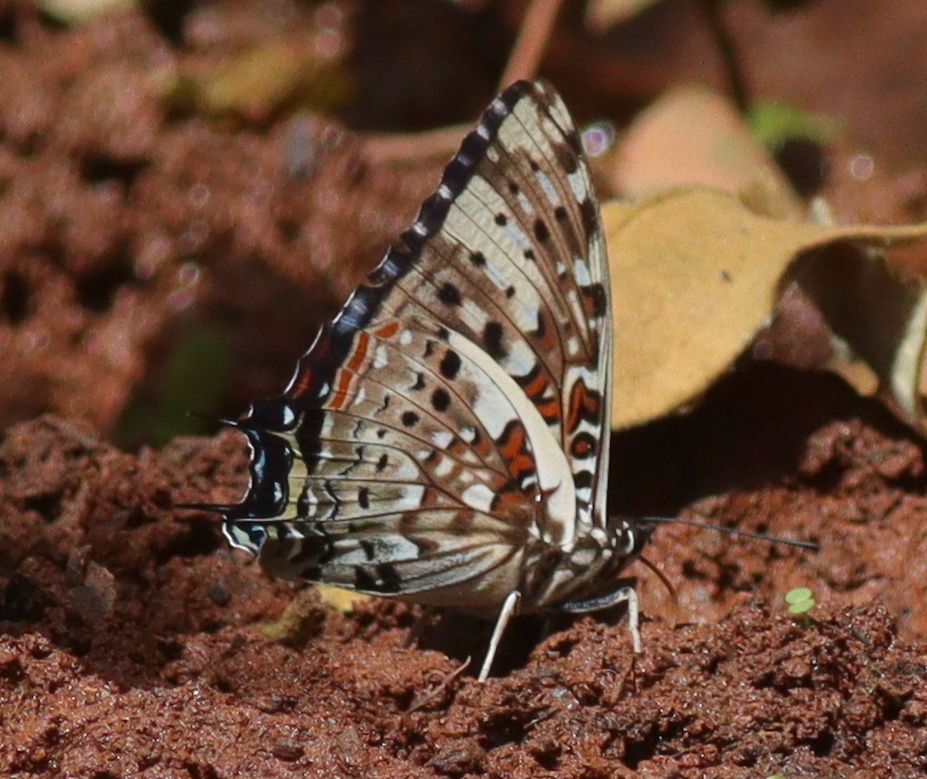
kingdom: Animalia
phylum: Arthropoda
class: Insecta
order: Lepidoptera
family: Nymphalidae
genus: Charaxes
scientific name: Charaxes etesipe
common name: Savannah charaxes
